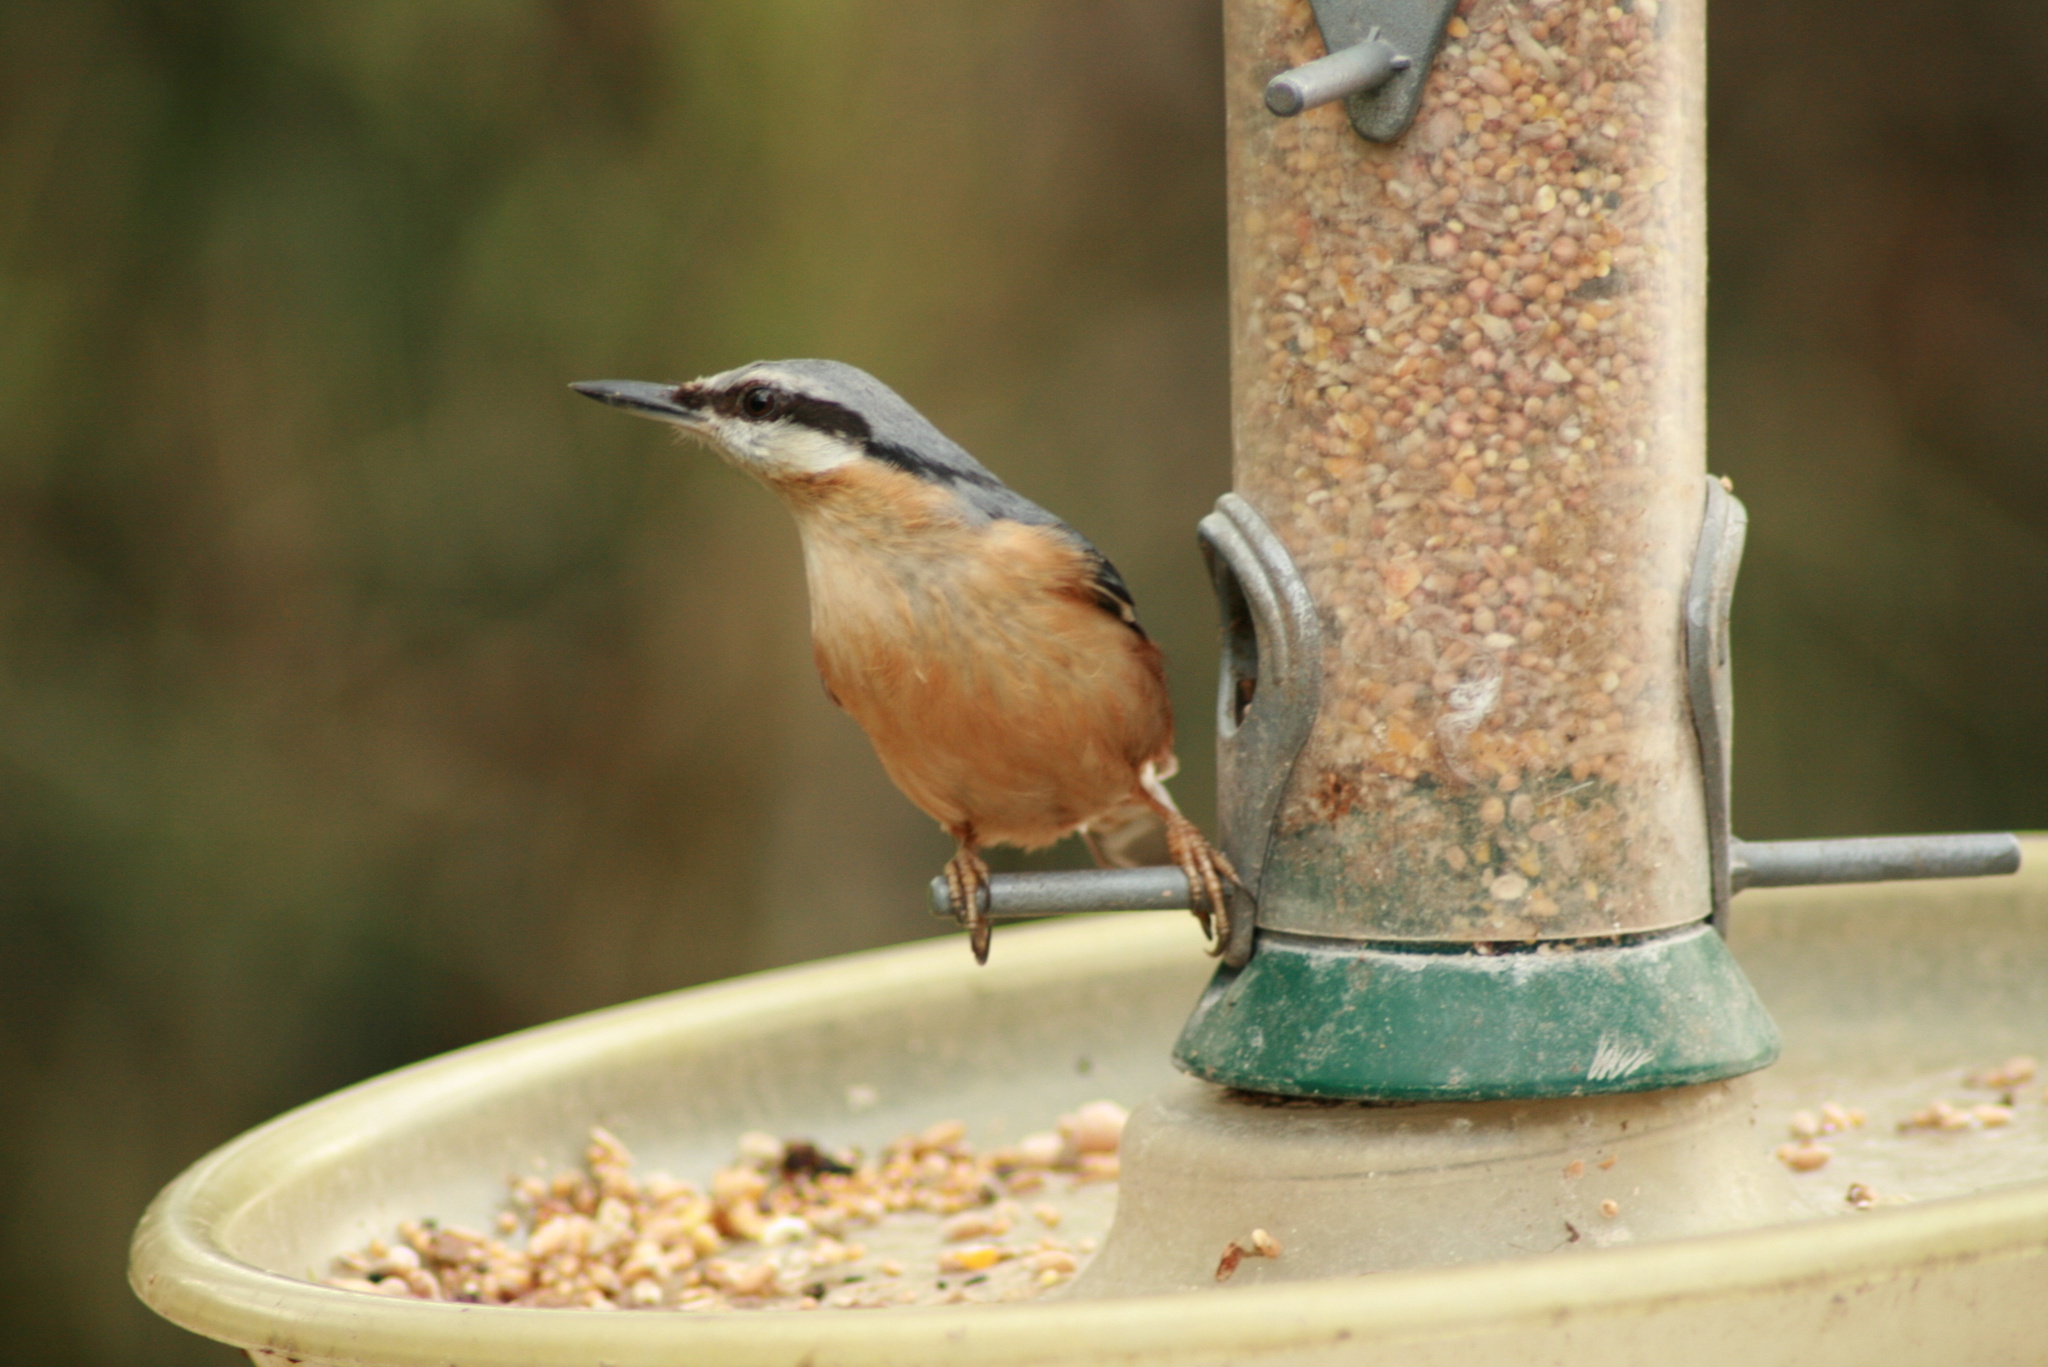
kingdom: Animalia
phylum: Chordata
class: Aves
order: Passeriformes
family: Sittidae
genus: Sitta
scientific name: Sitta europaea
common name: Eurasian nuthatch
